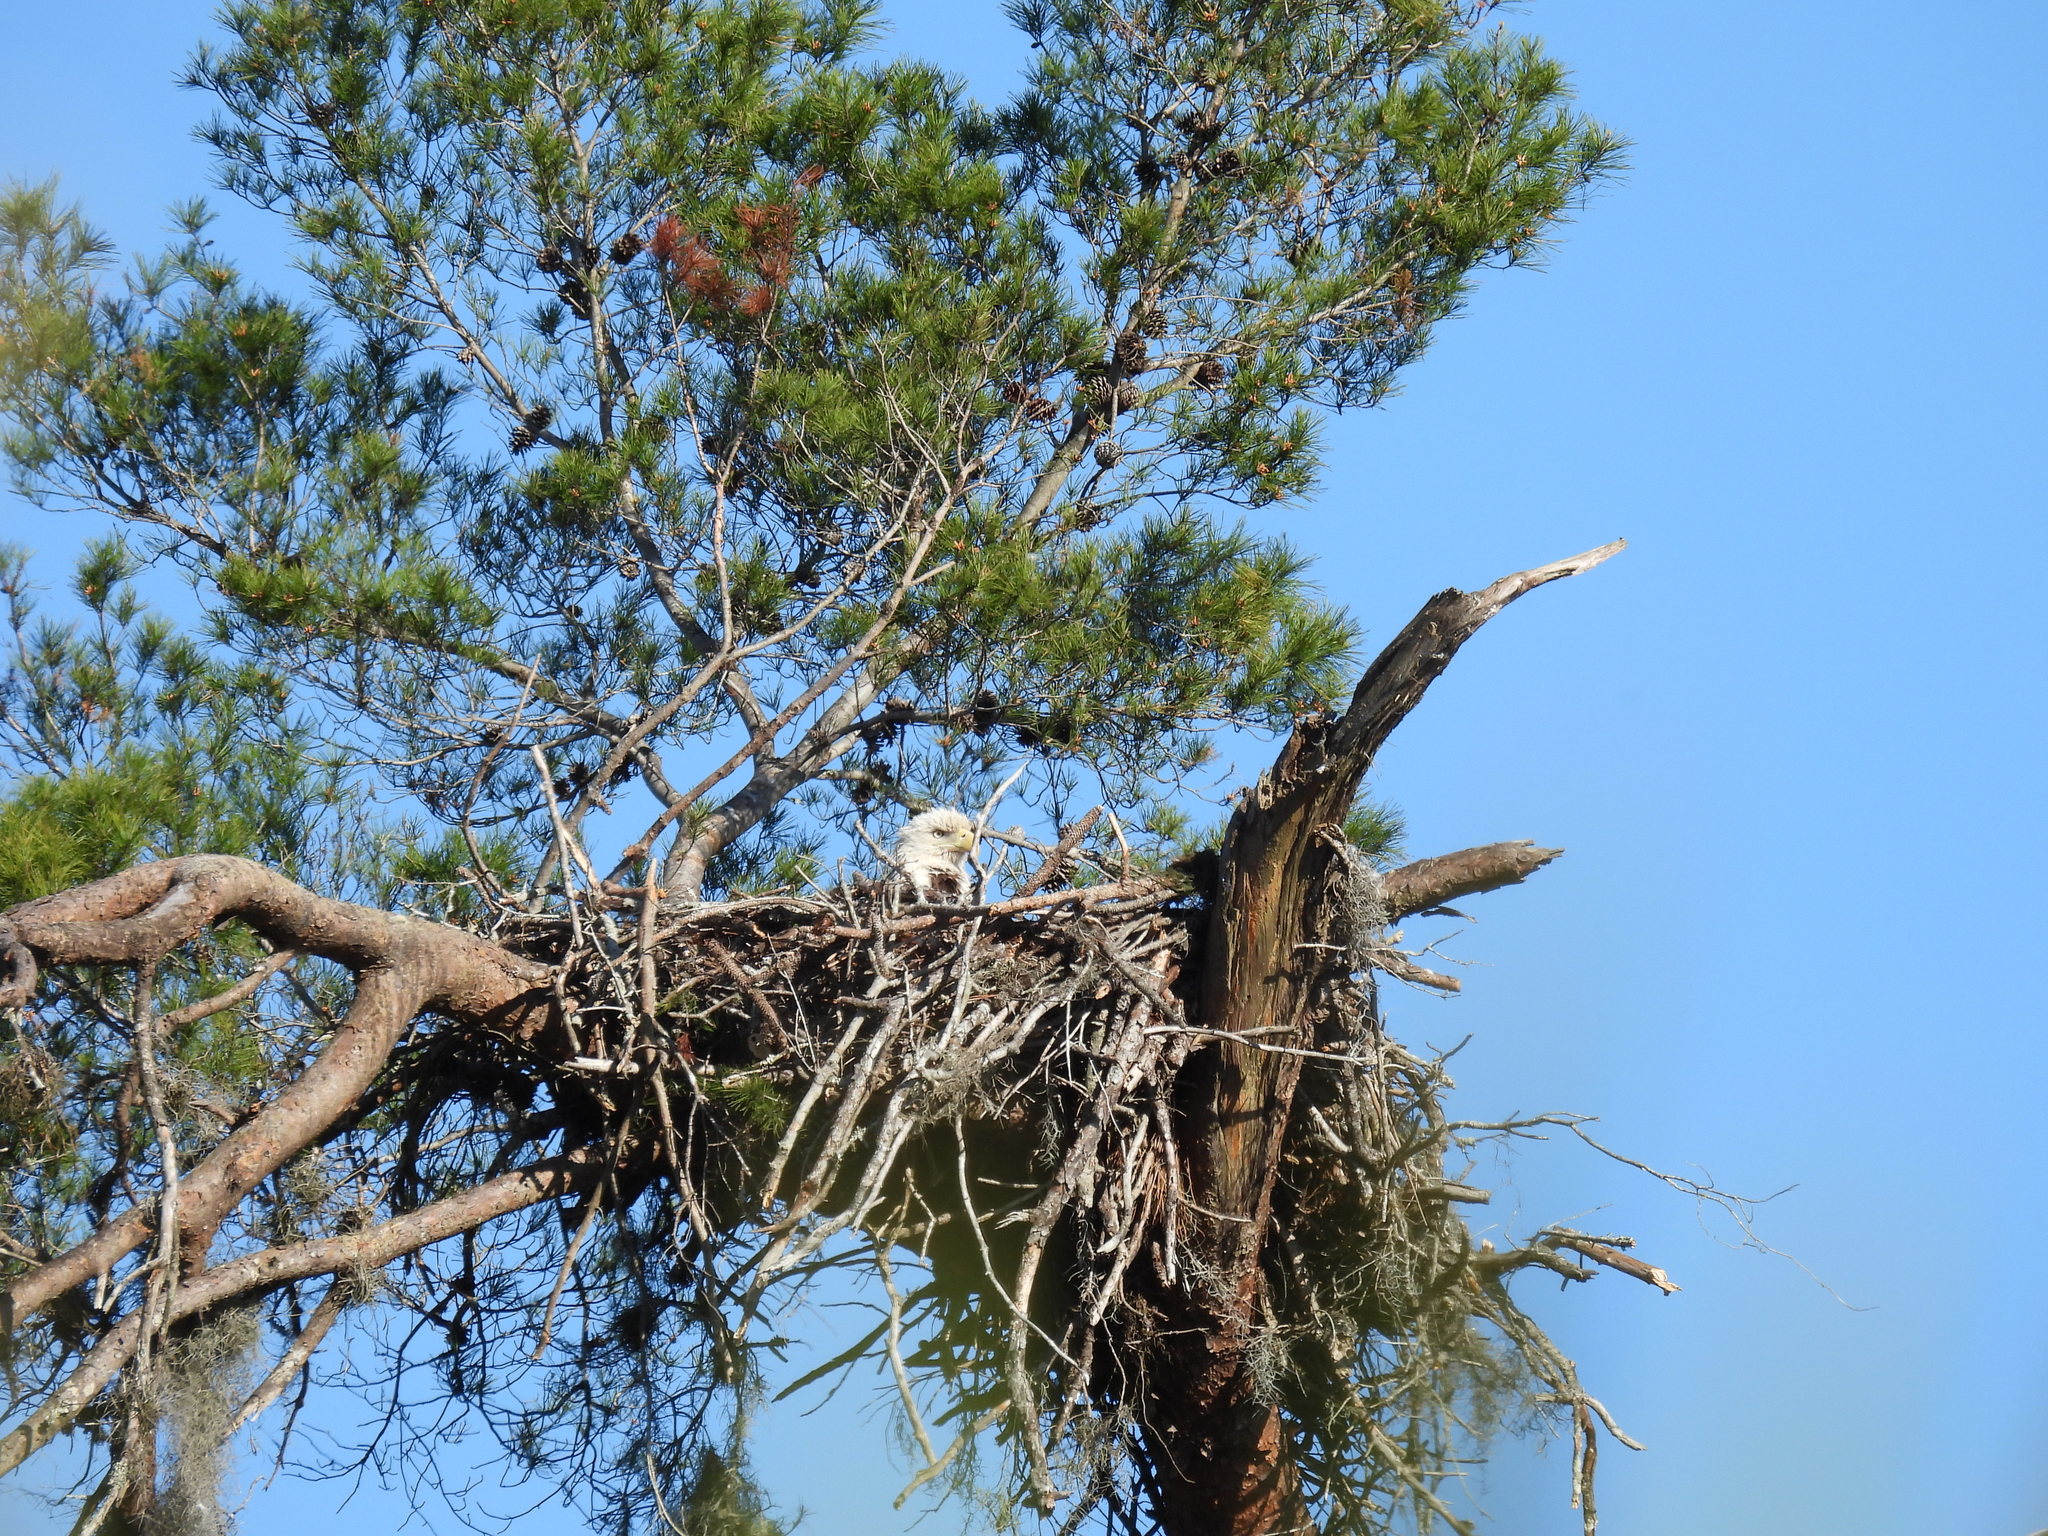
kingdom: Animalia
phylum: Chordata
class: Aves
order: Accipitriformes
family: Accipitridae
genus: Haliaeetus
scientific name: Haliaeetus leucocephalus
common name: Bald eagle
